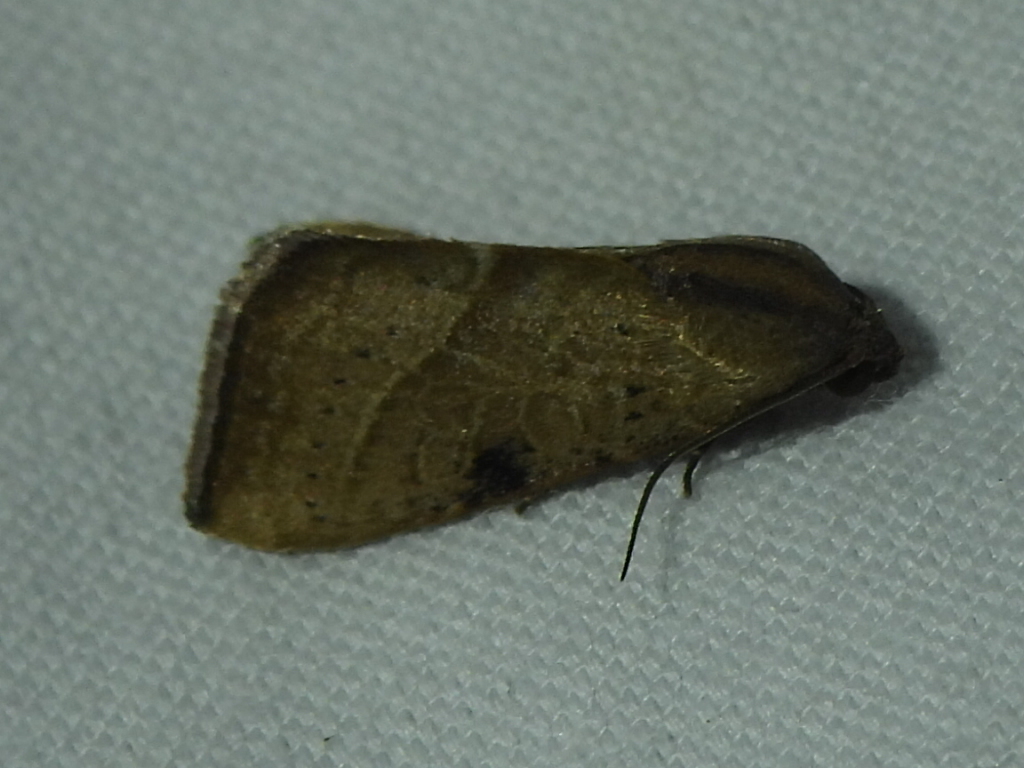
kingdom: Animalia
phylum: Arthropoda
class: Insecta
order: Lepidoptera
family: Noctuidae
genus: Galgula
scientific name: Galgula partita
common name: Wedgeling
